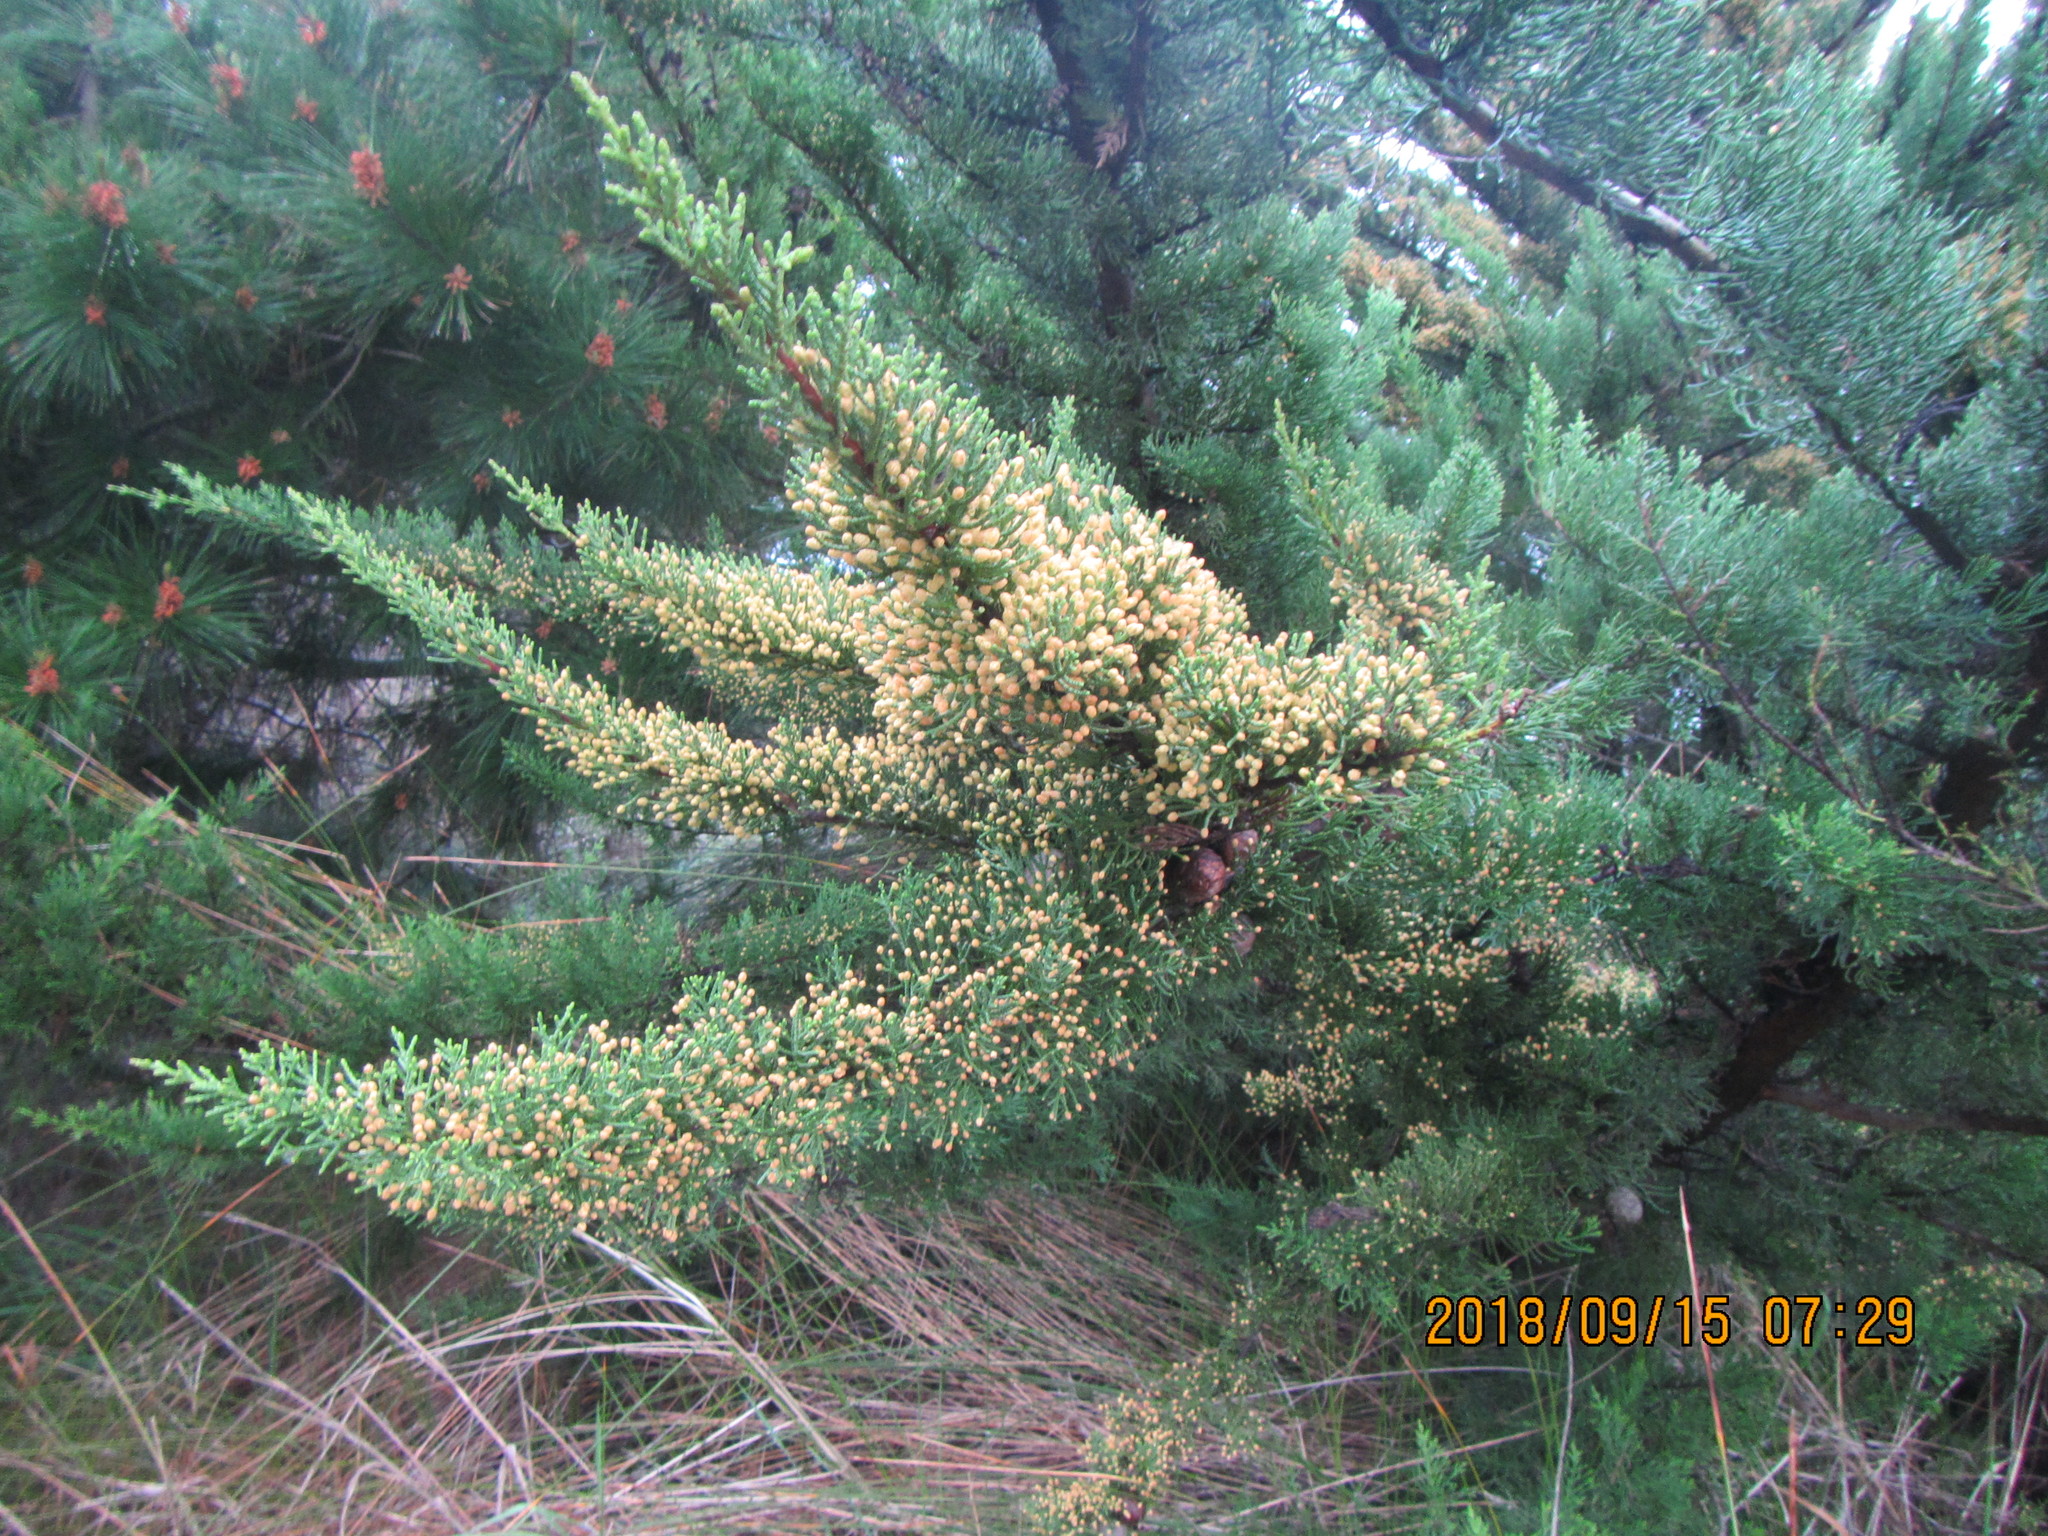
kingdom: Plantae
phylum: Tracheophyta
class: Pinopsida
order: Pinales
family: Cupressaceae
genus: Cupressus
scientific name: Cupressus macrocarpa
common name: Monterey cypress
